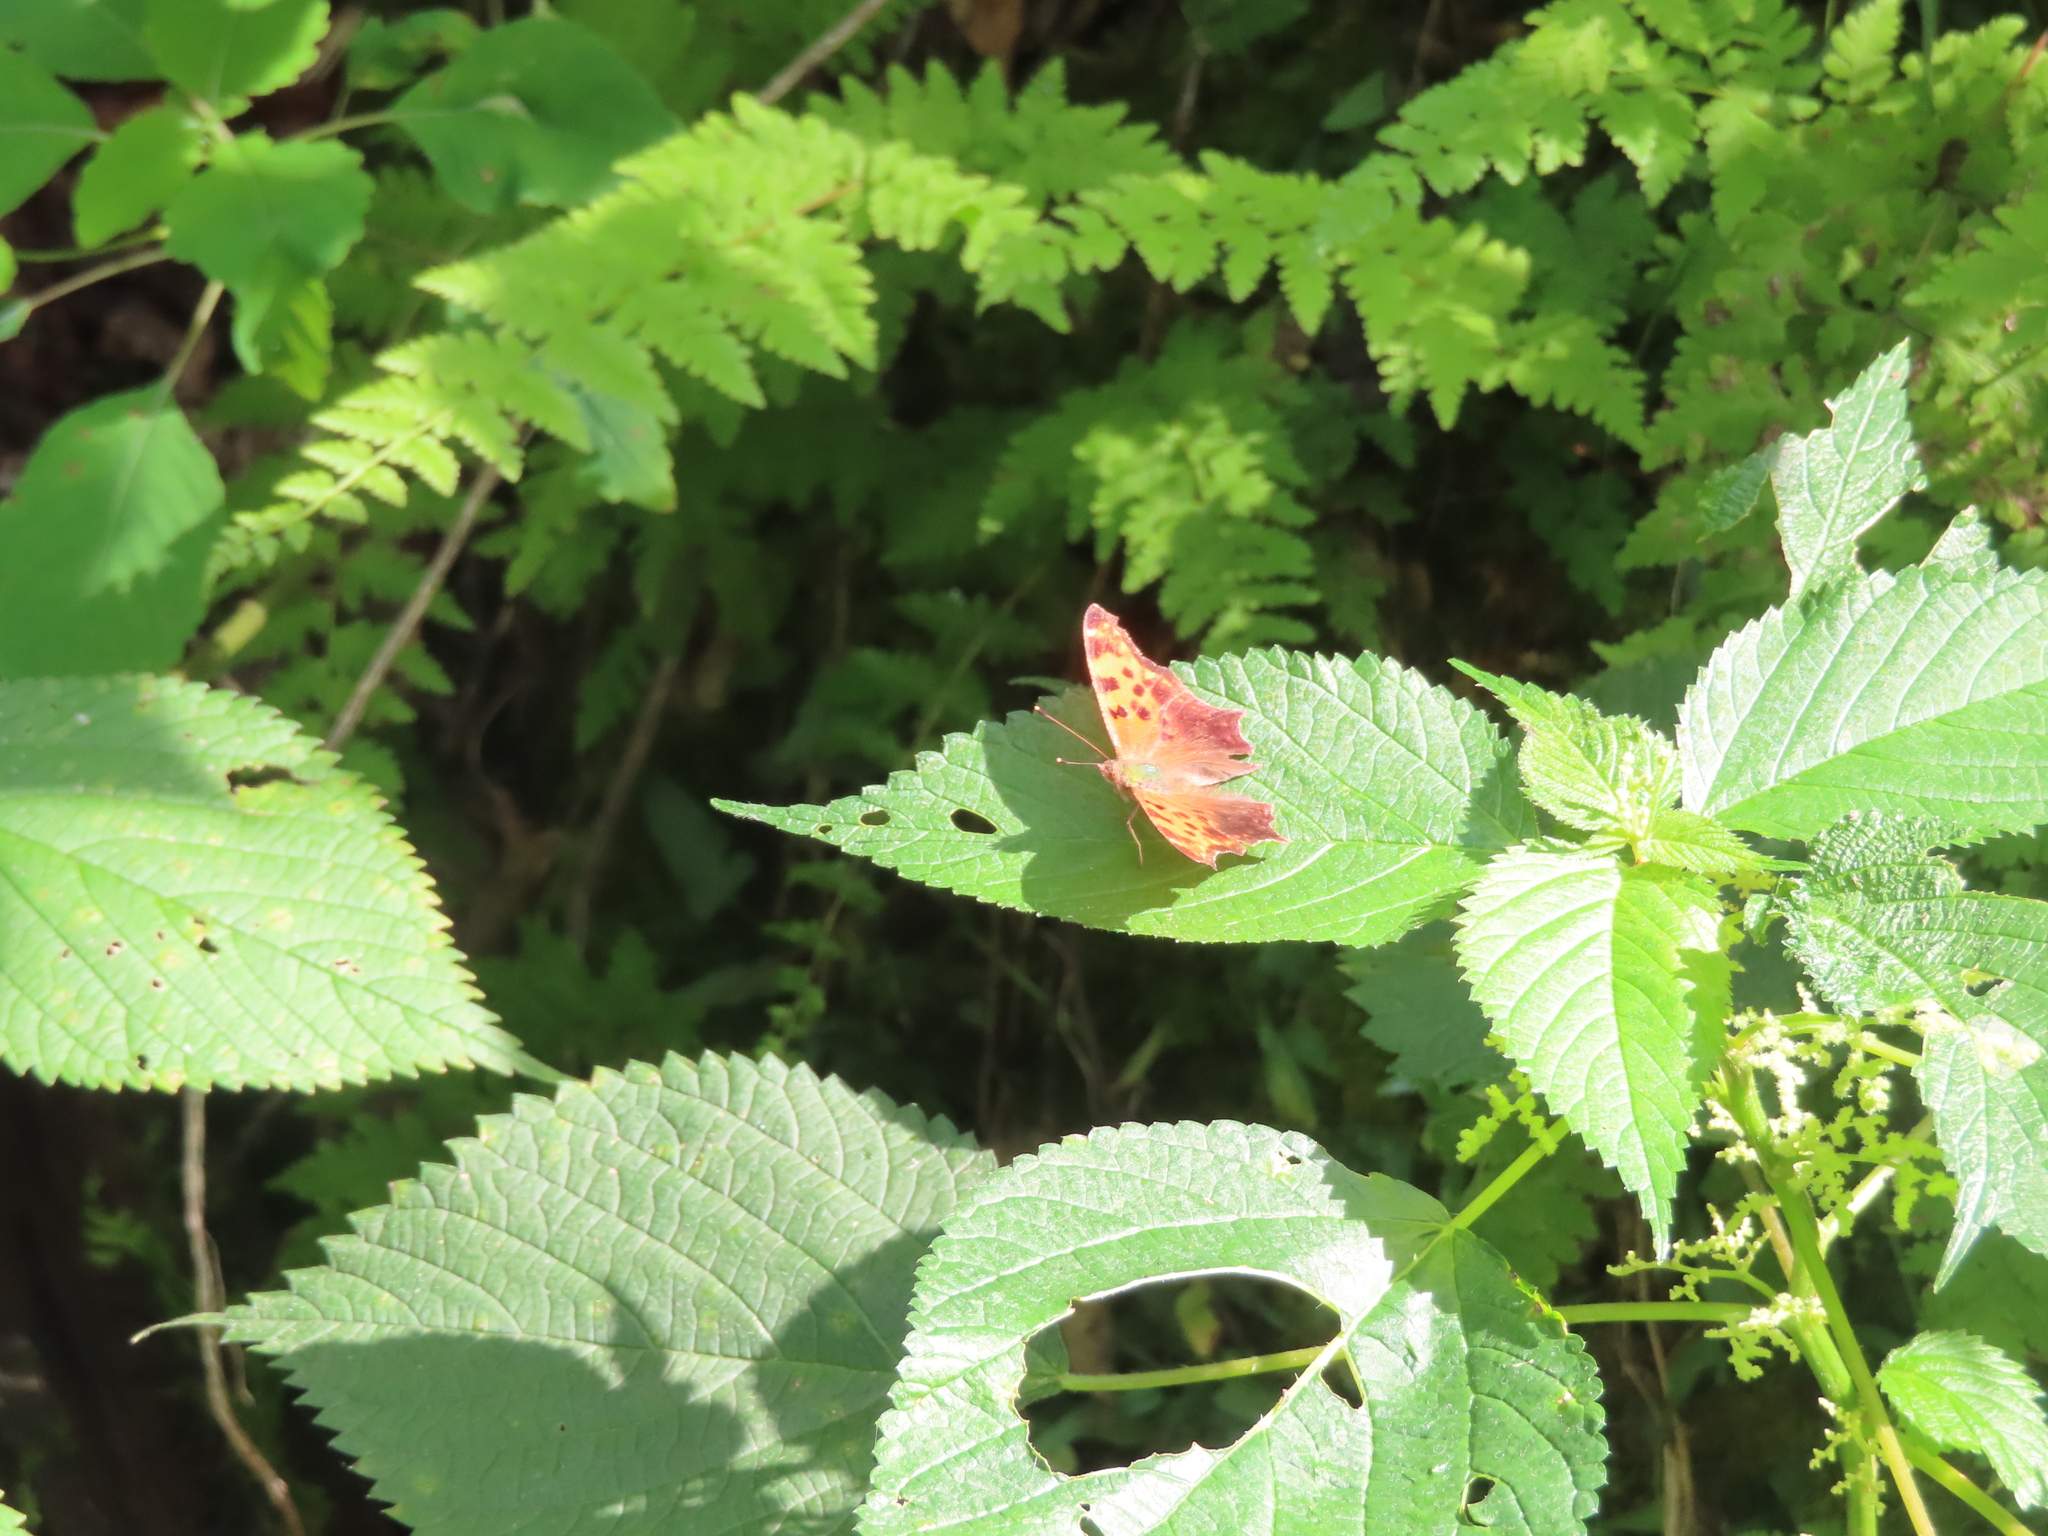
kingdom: Animalia
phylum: Arthropoda
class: Insecta
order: Lepidoptera
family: Nymphalidae
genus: Polygonia
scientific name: Polygonia comma
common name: Eastern comma
